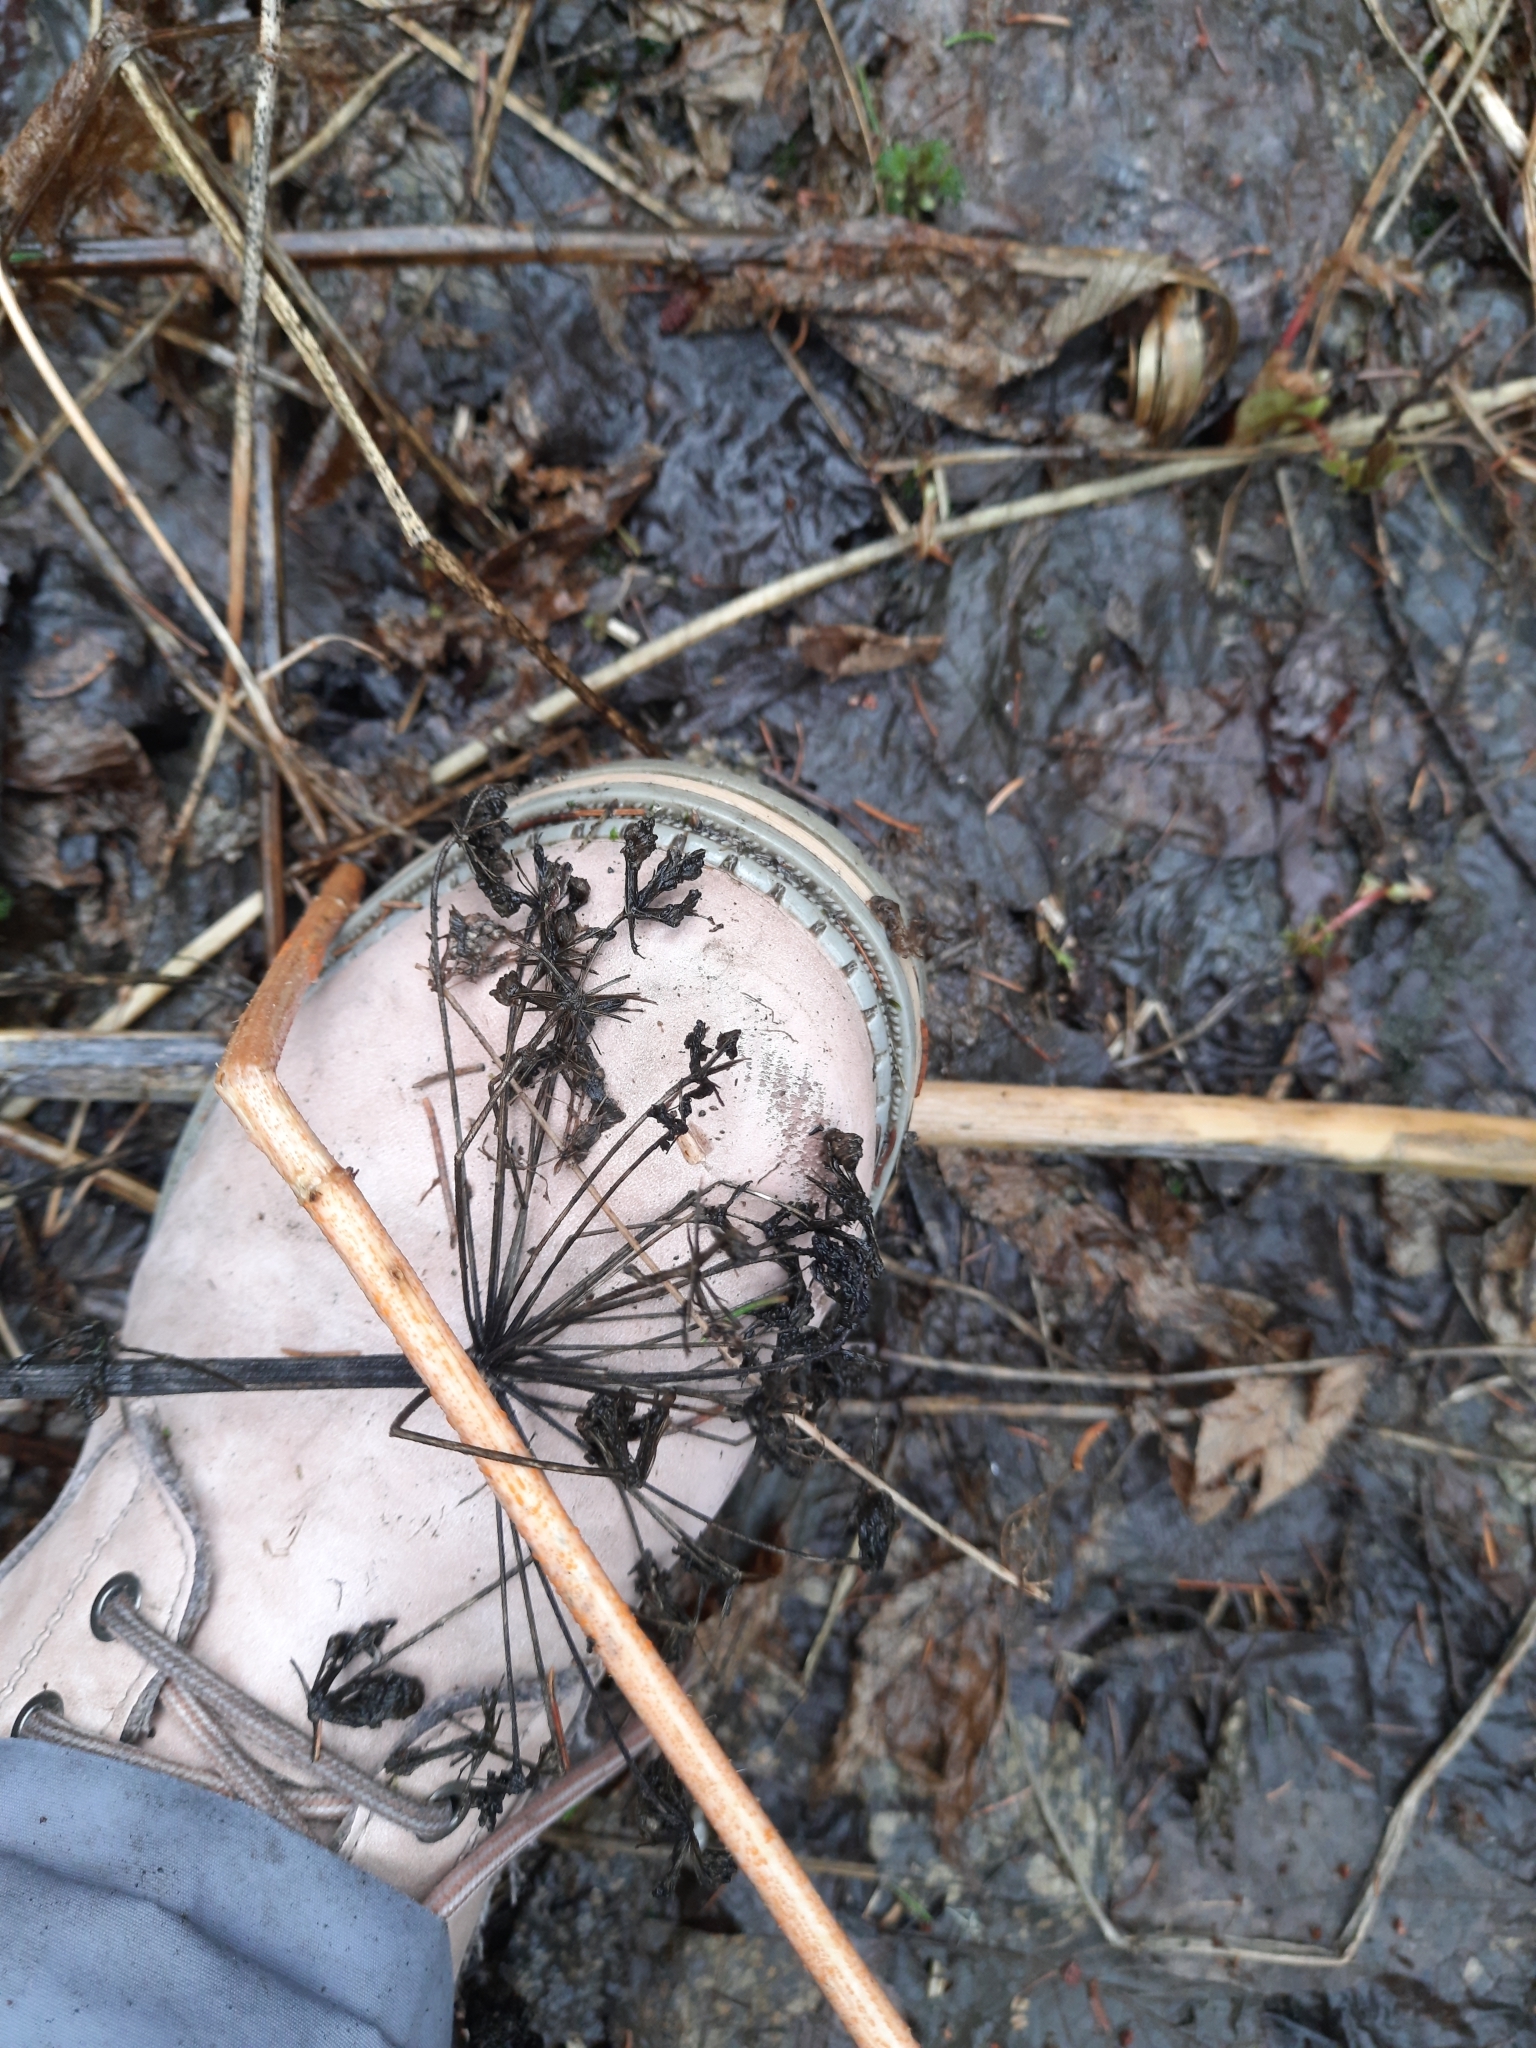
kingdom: Plantae
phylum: Tracheophyta
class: Magnoliopsida
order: Apiales
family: Apiaceae
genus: Angelica
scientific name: Angelica sylvestris
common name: Wild angelica
